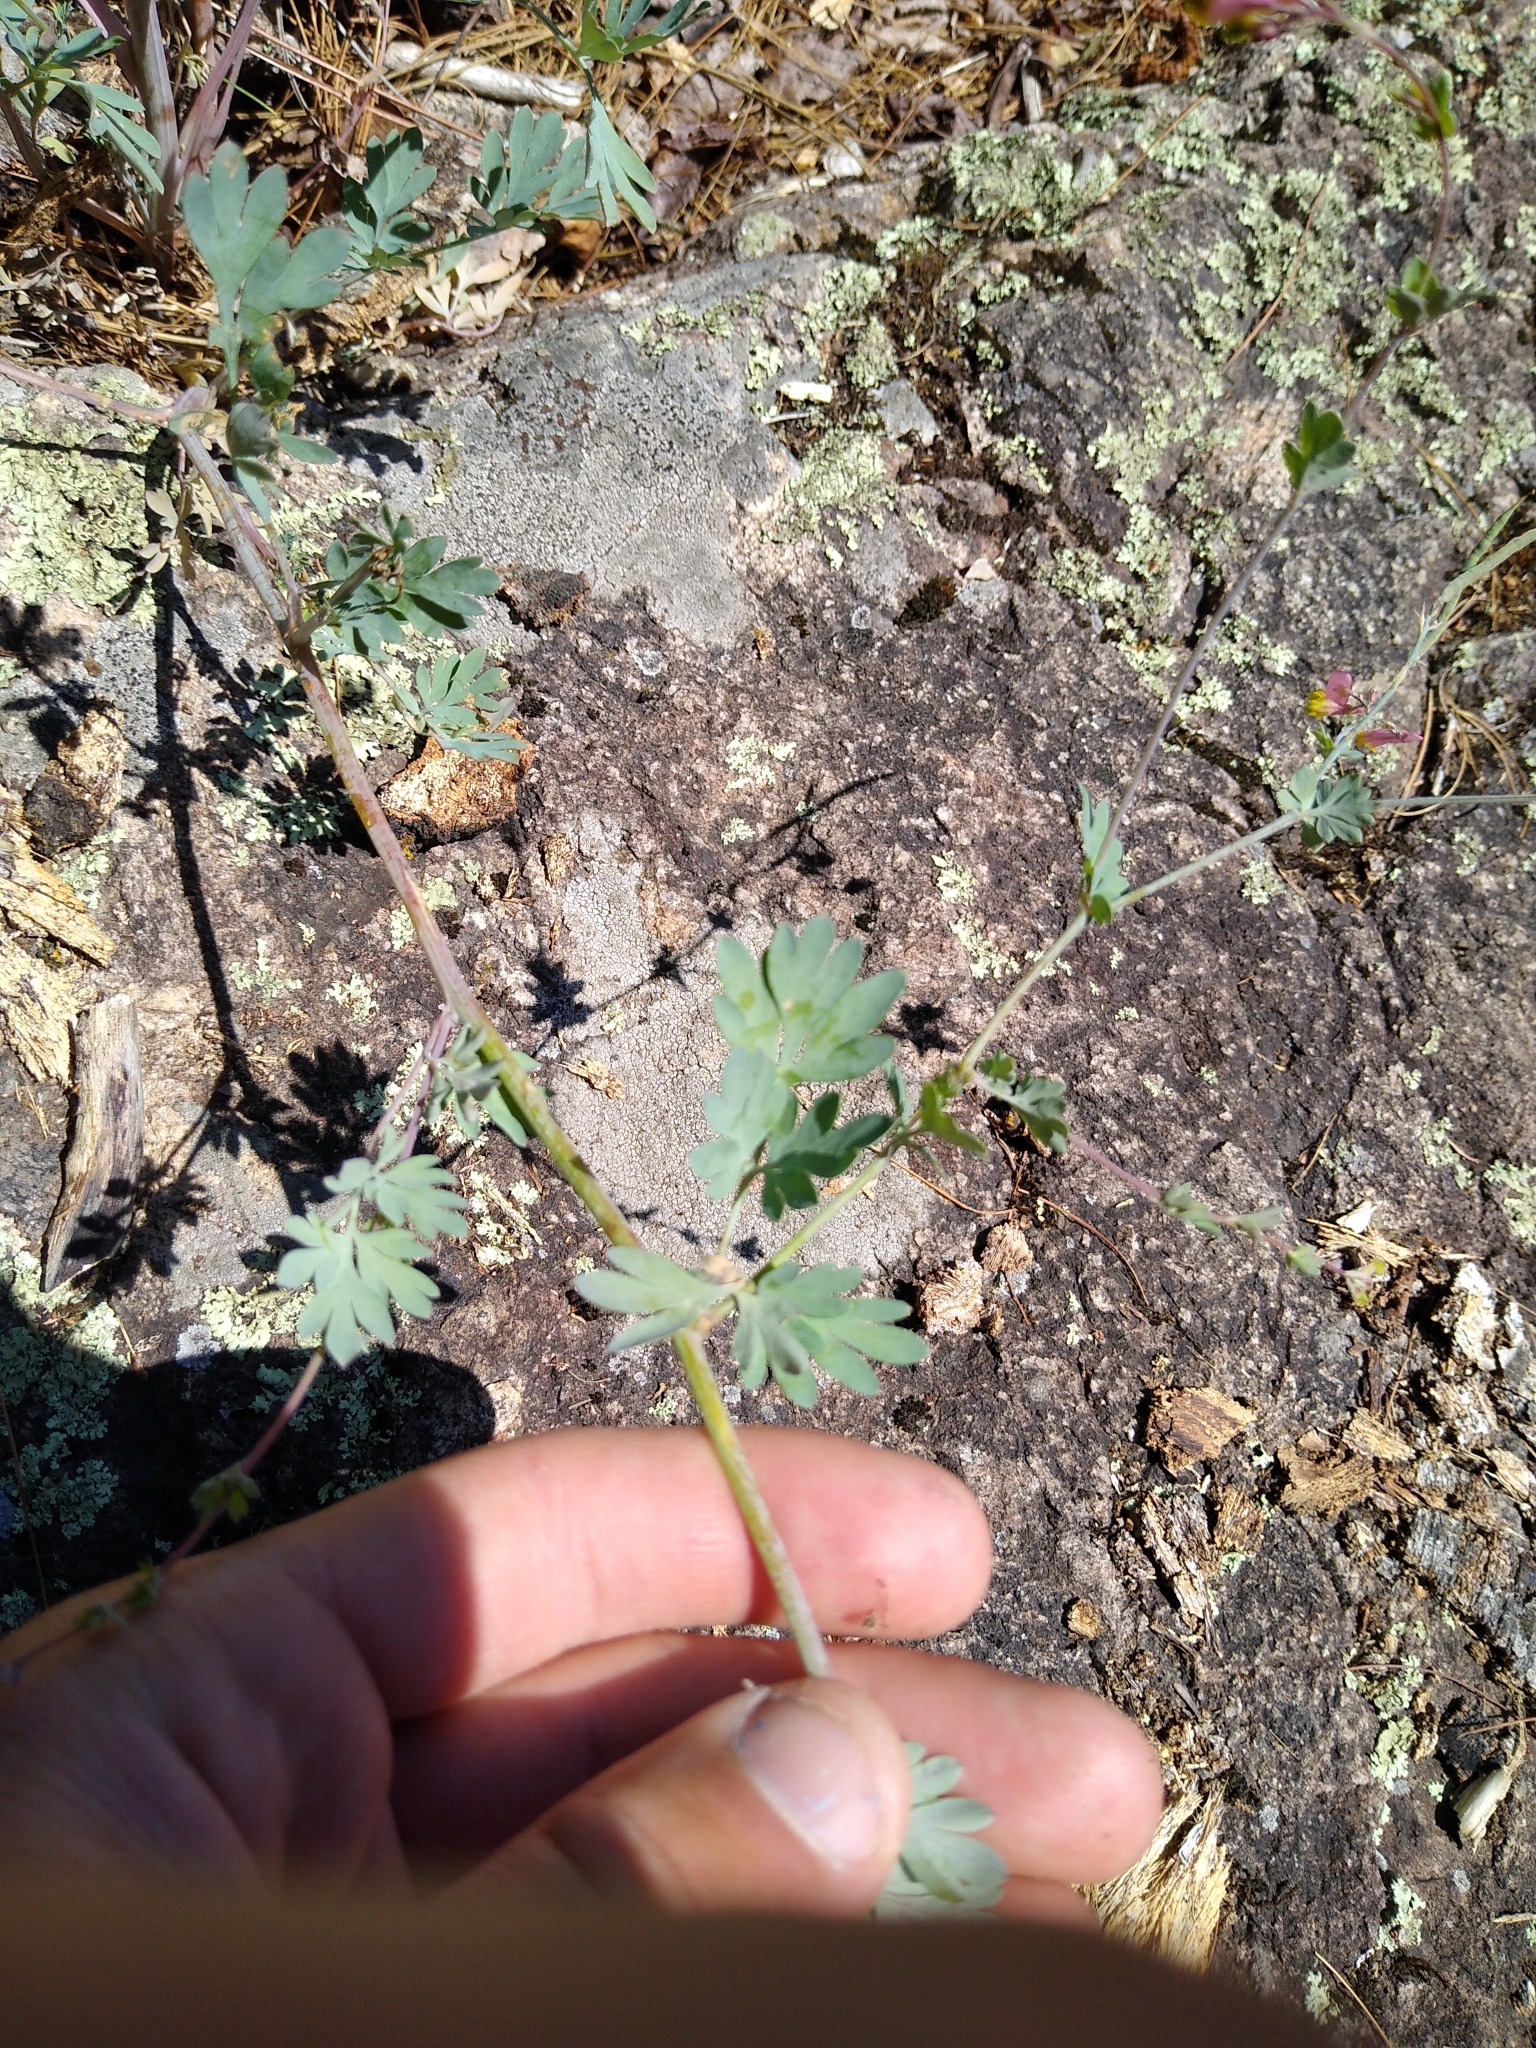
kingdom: Plantae
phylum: Tracheophyta
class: Magnoliopsida
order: Ranunculales
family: Papaveraceae
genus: Capnoides
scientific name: Capnoides sempervirens
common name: Rock harlequin
